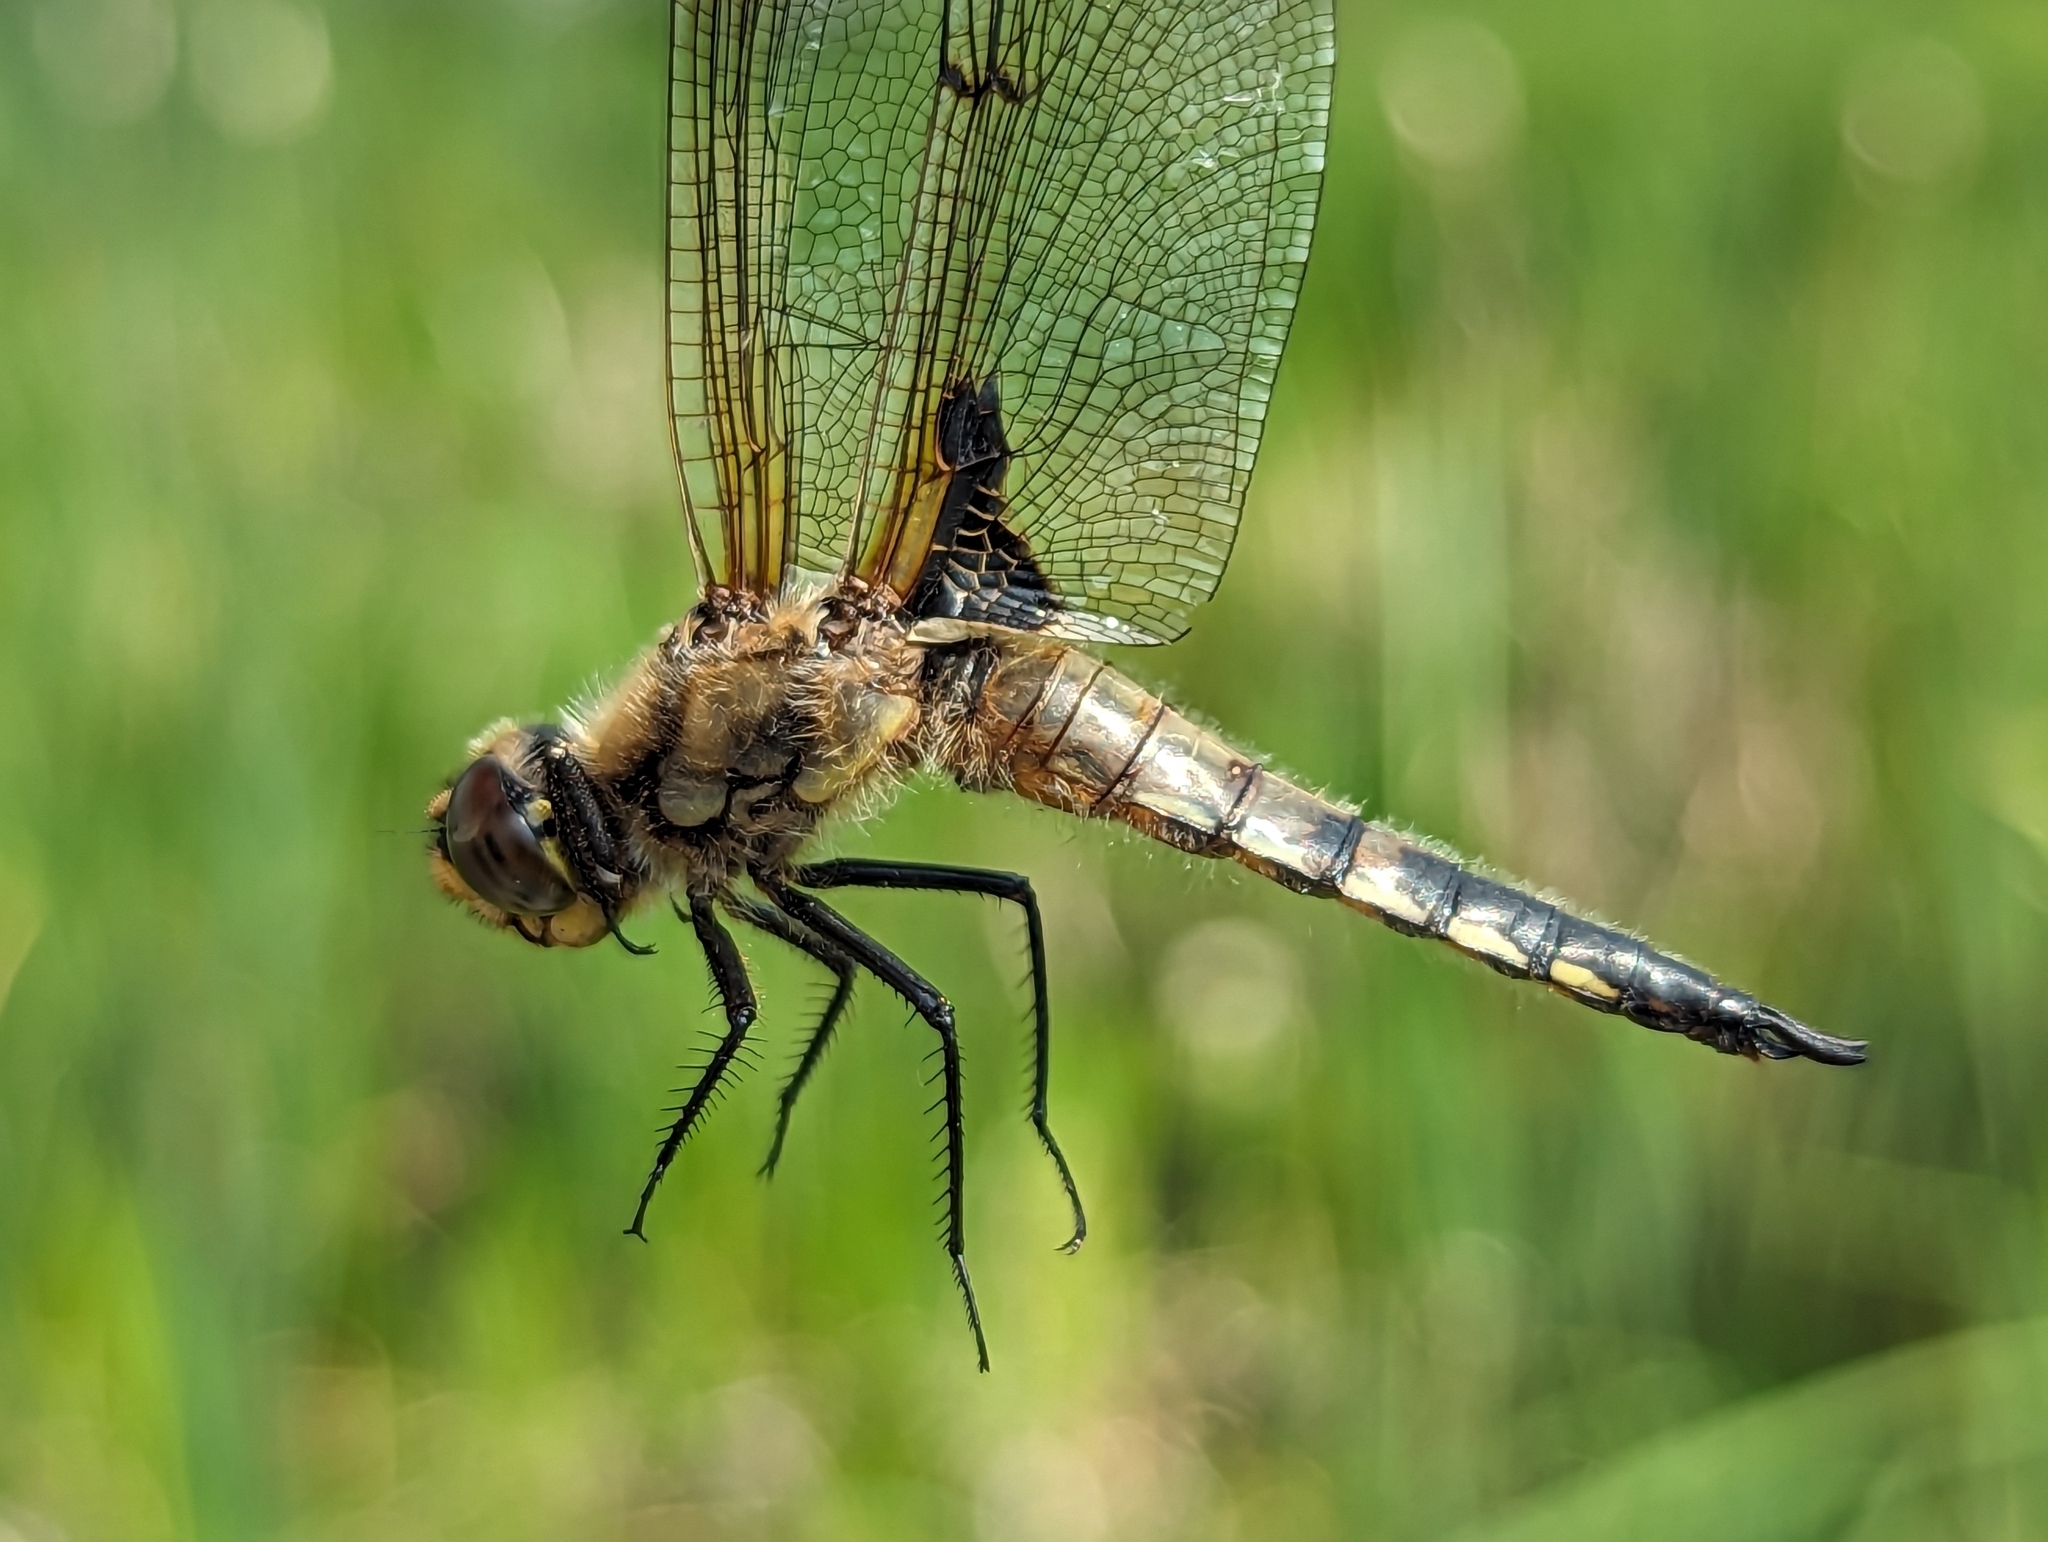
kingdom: Animalia
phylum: Arthropoda
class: Insecta
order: Odonata
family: Libellulidae
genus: Libellula
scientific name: Libellula quadrimaculata
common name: Four-spotted chaser
